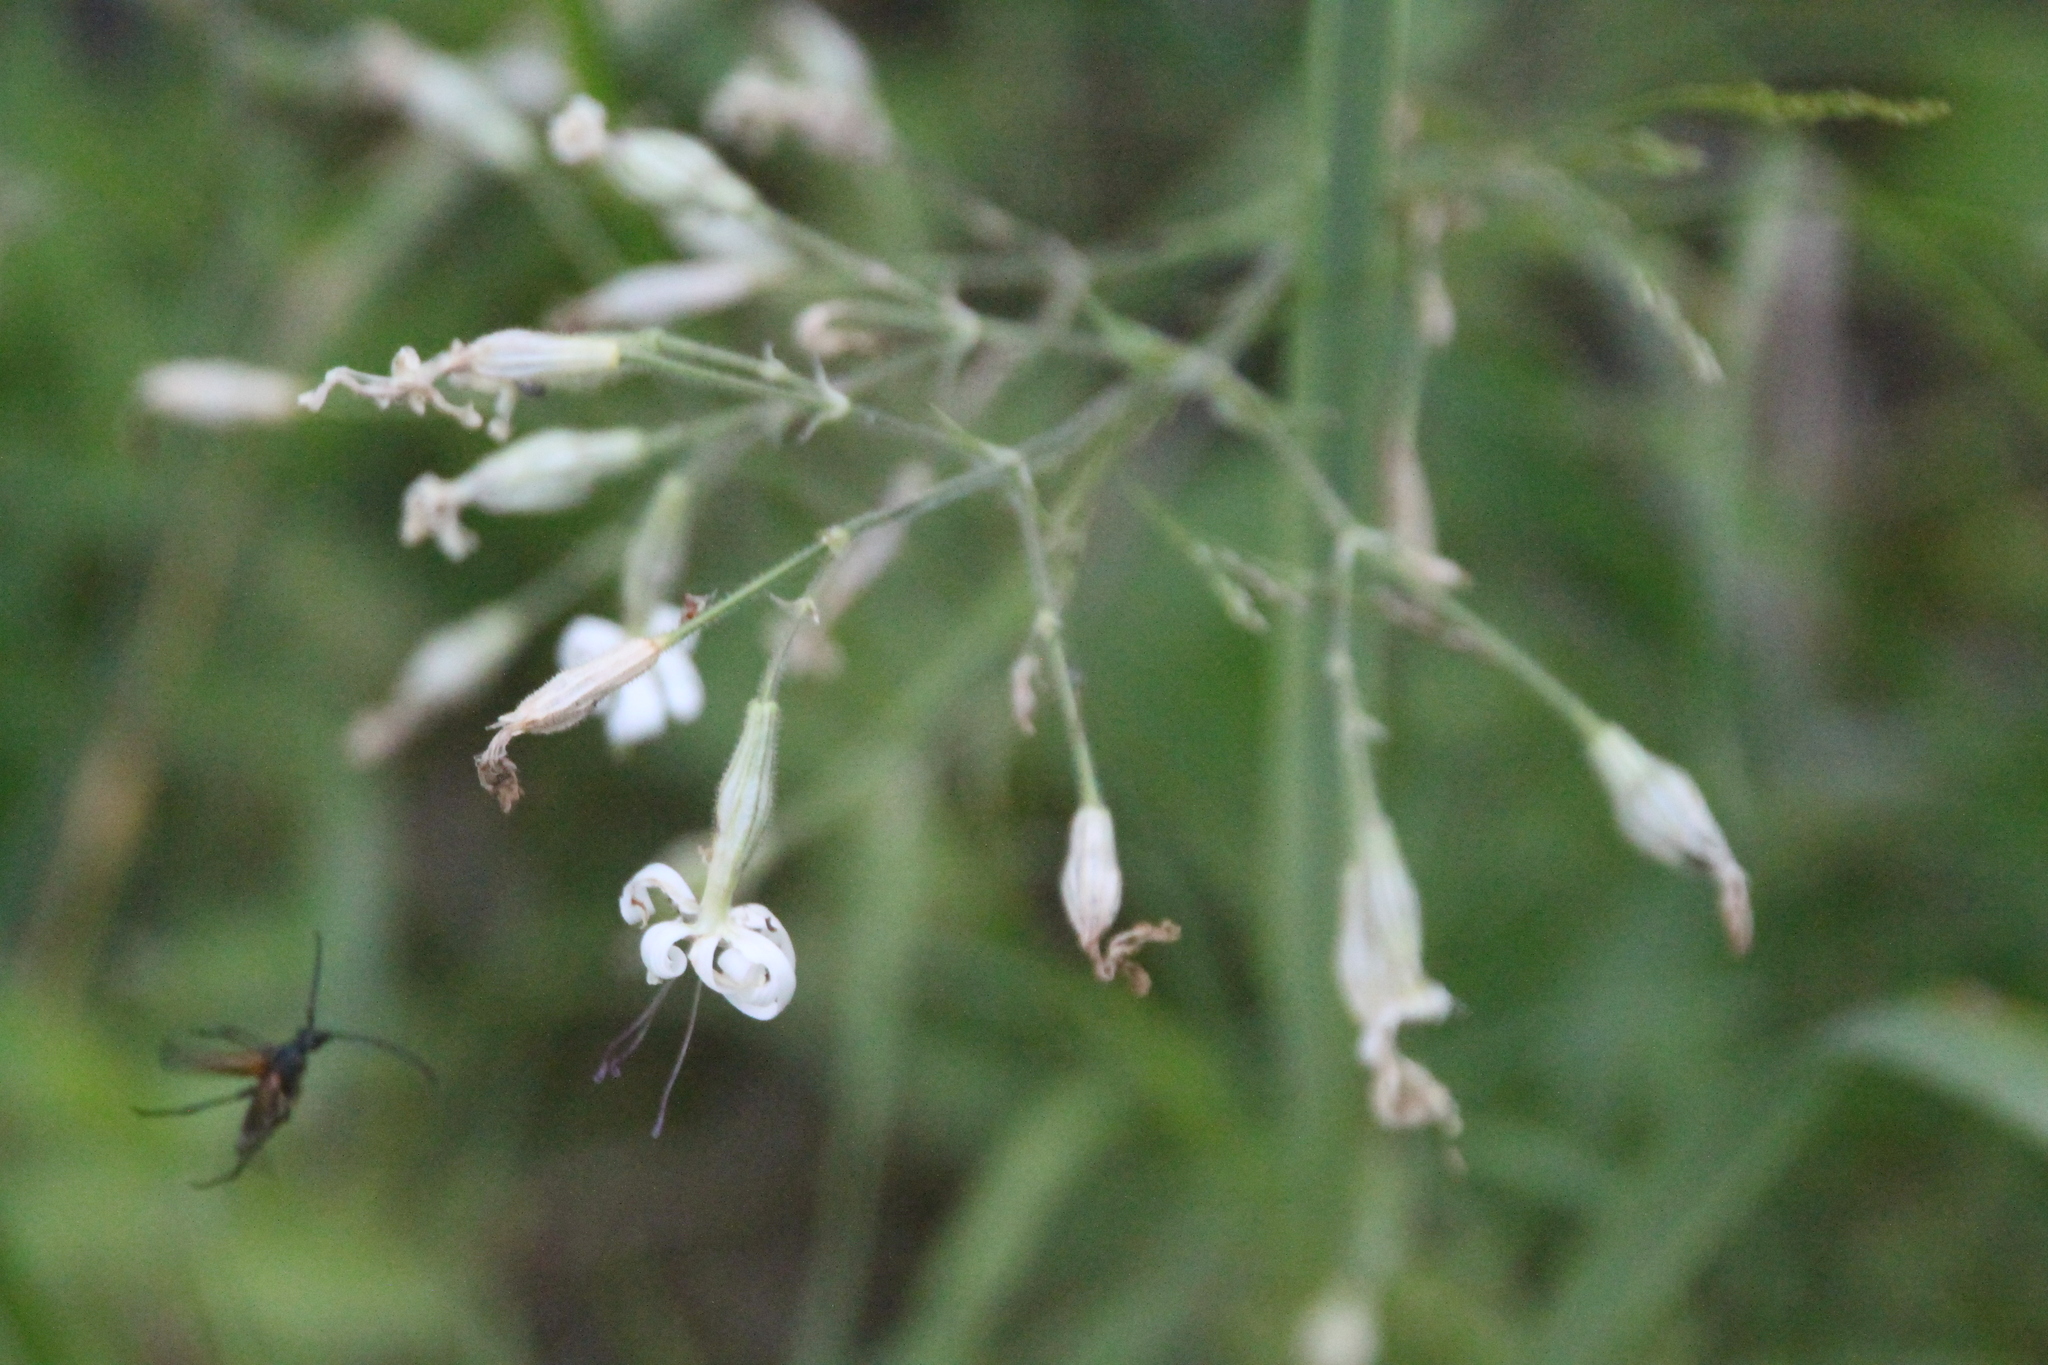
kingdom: Plantae
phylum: Tracheophyta
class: Magnoliopsida
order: Caryophyllales
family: Caryophyllaceae
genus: Silene
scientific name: Silene nutans
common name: Nottingham catchfly
